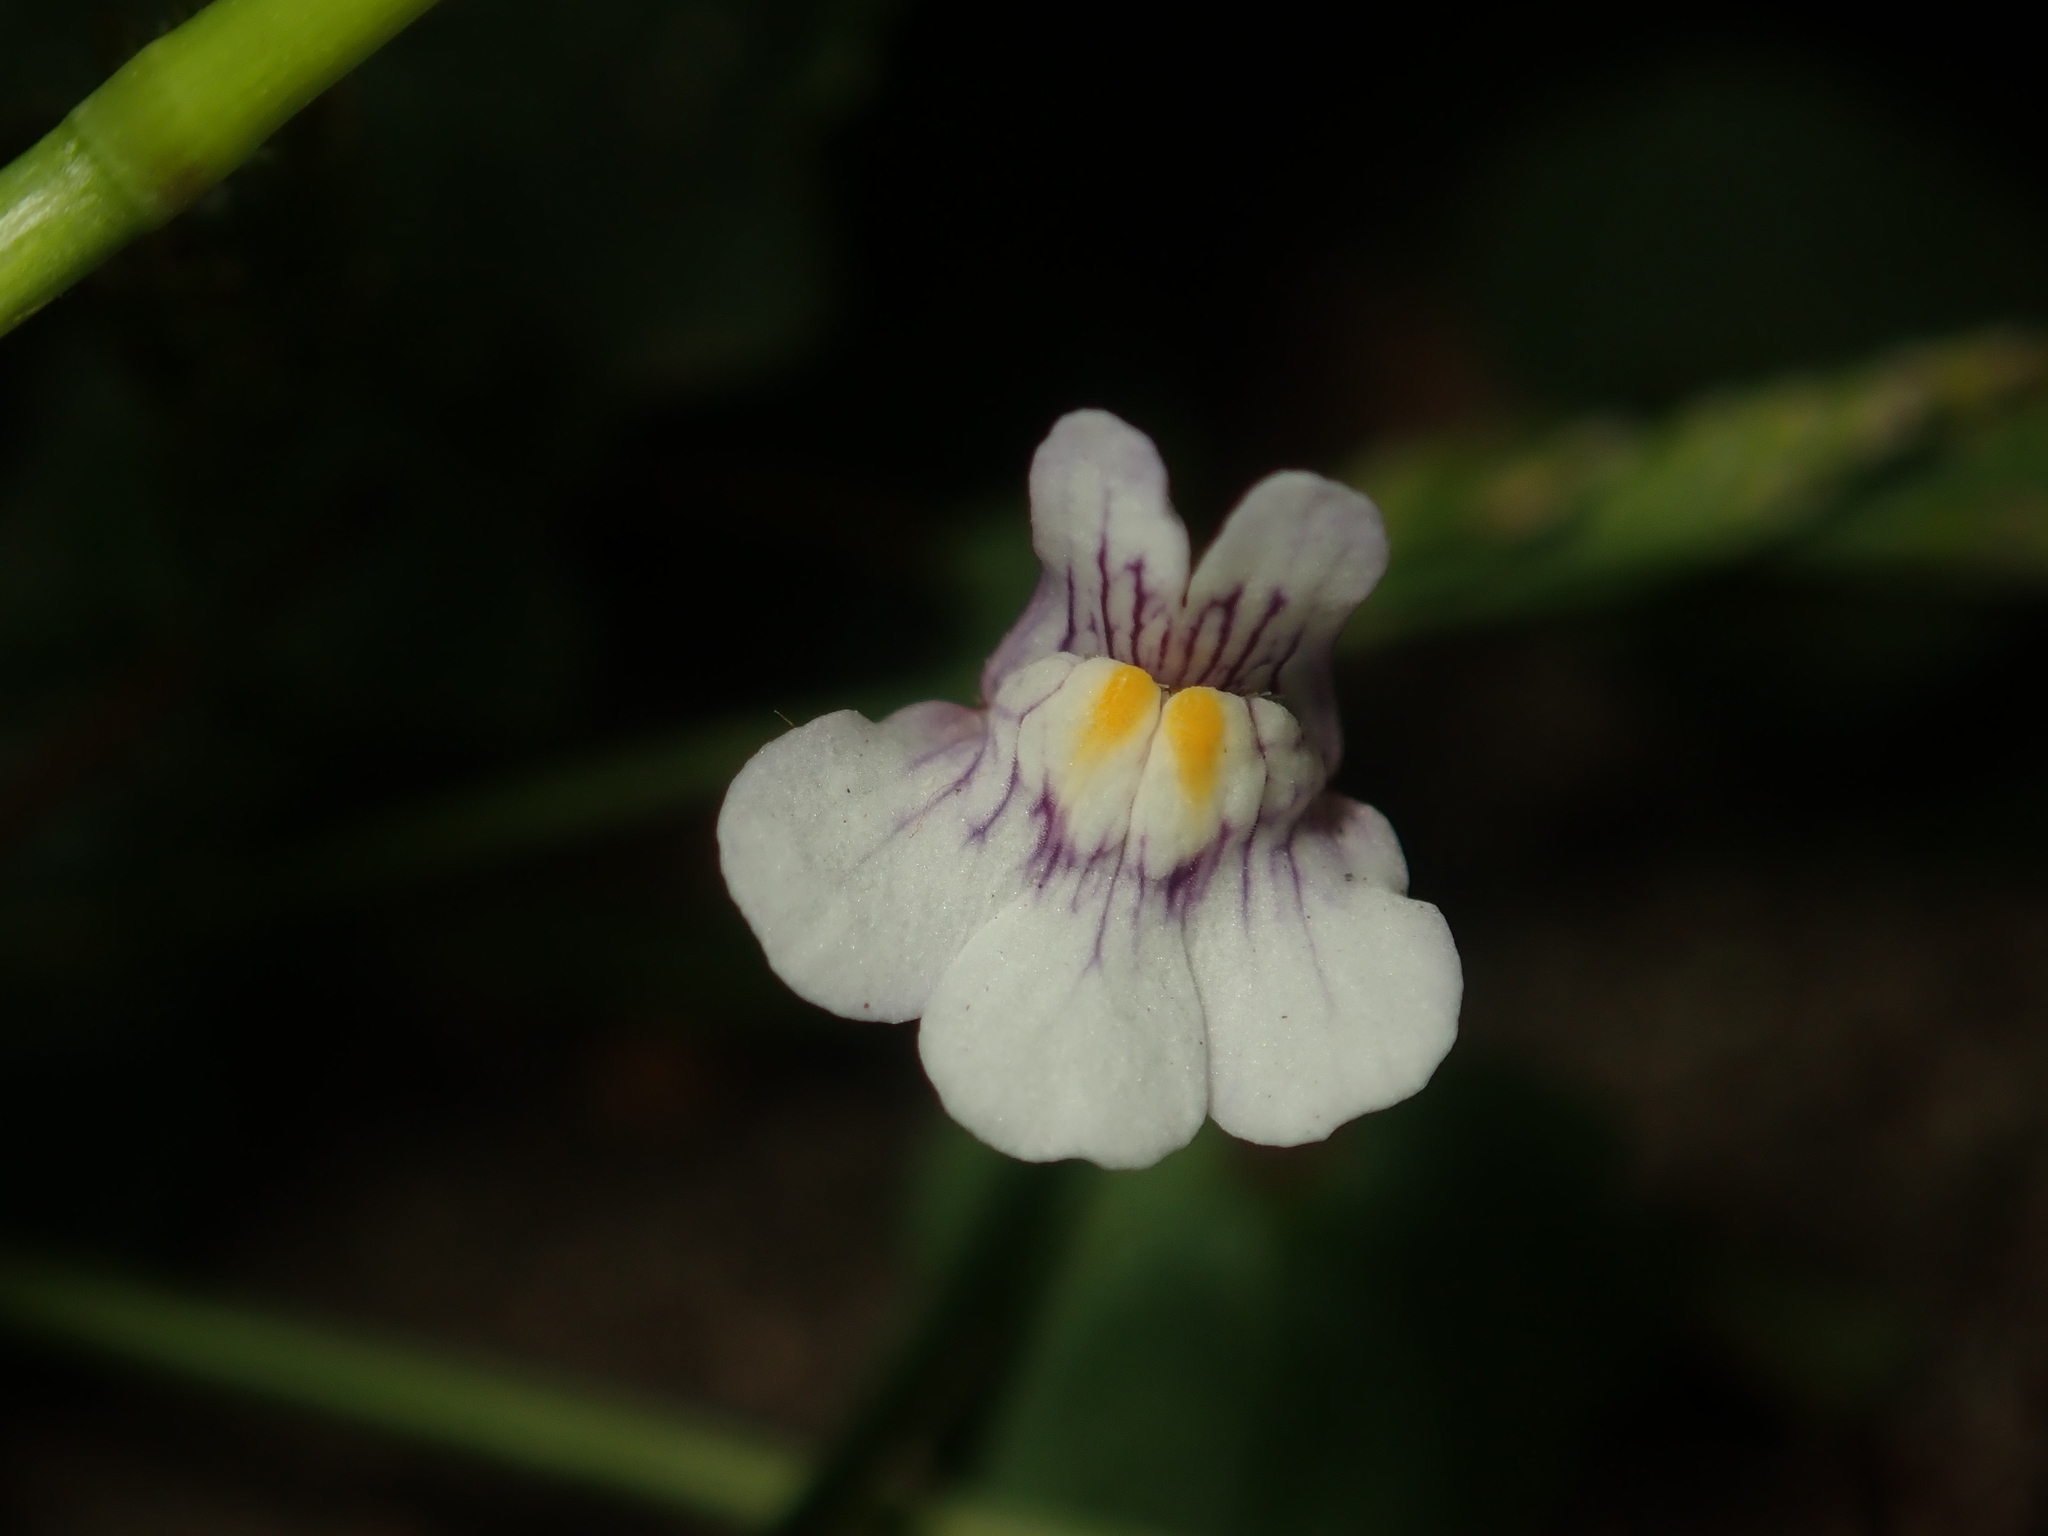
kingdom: Plantae
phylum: Tracheophyta
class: Magnoliopsida
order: Lamiales
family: Plantaginaceae
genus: Cymbalaria
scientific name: Cymbalaria muralis
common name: Ivy-leaved toadflax
